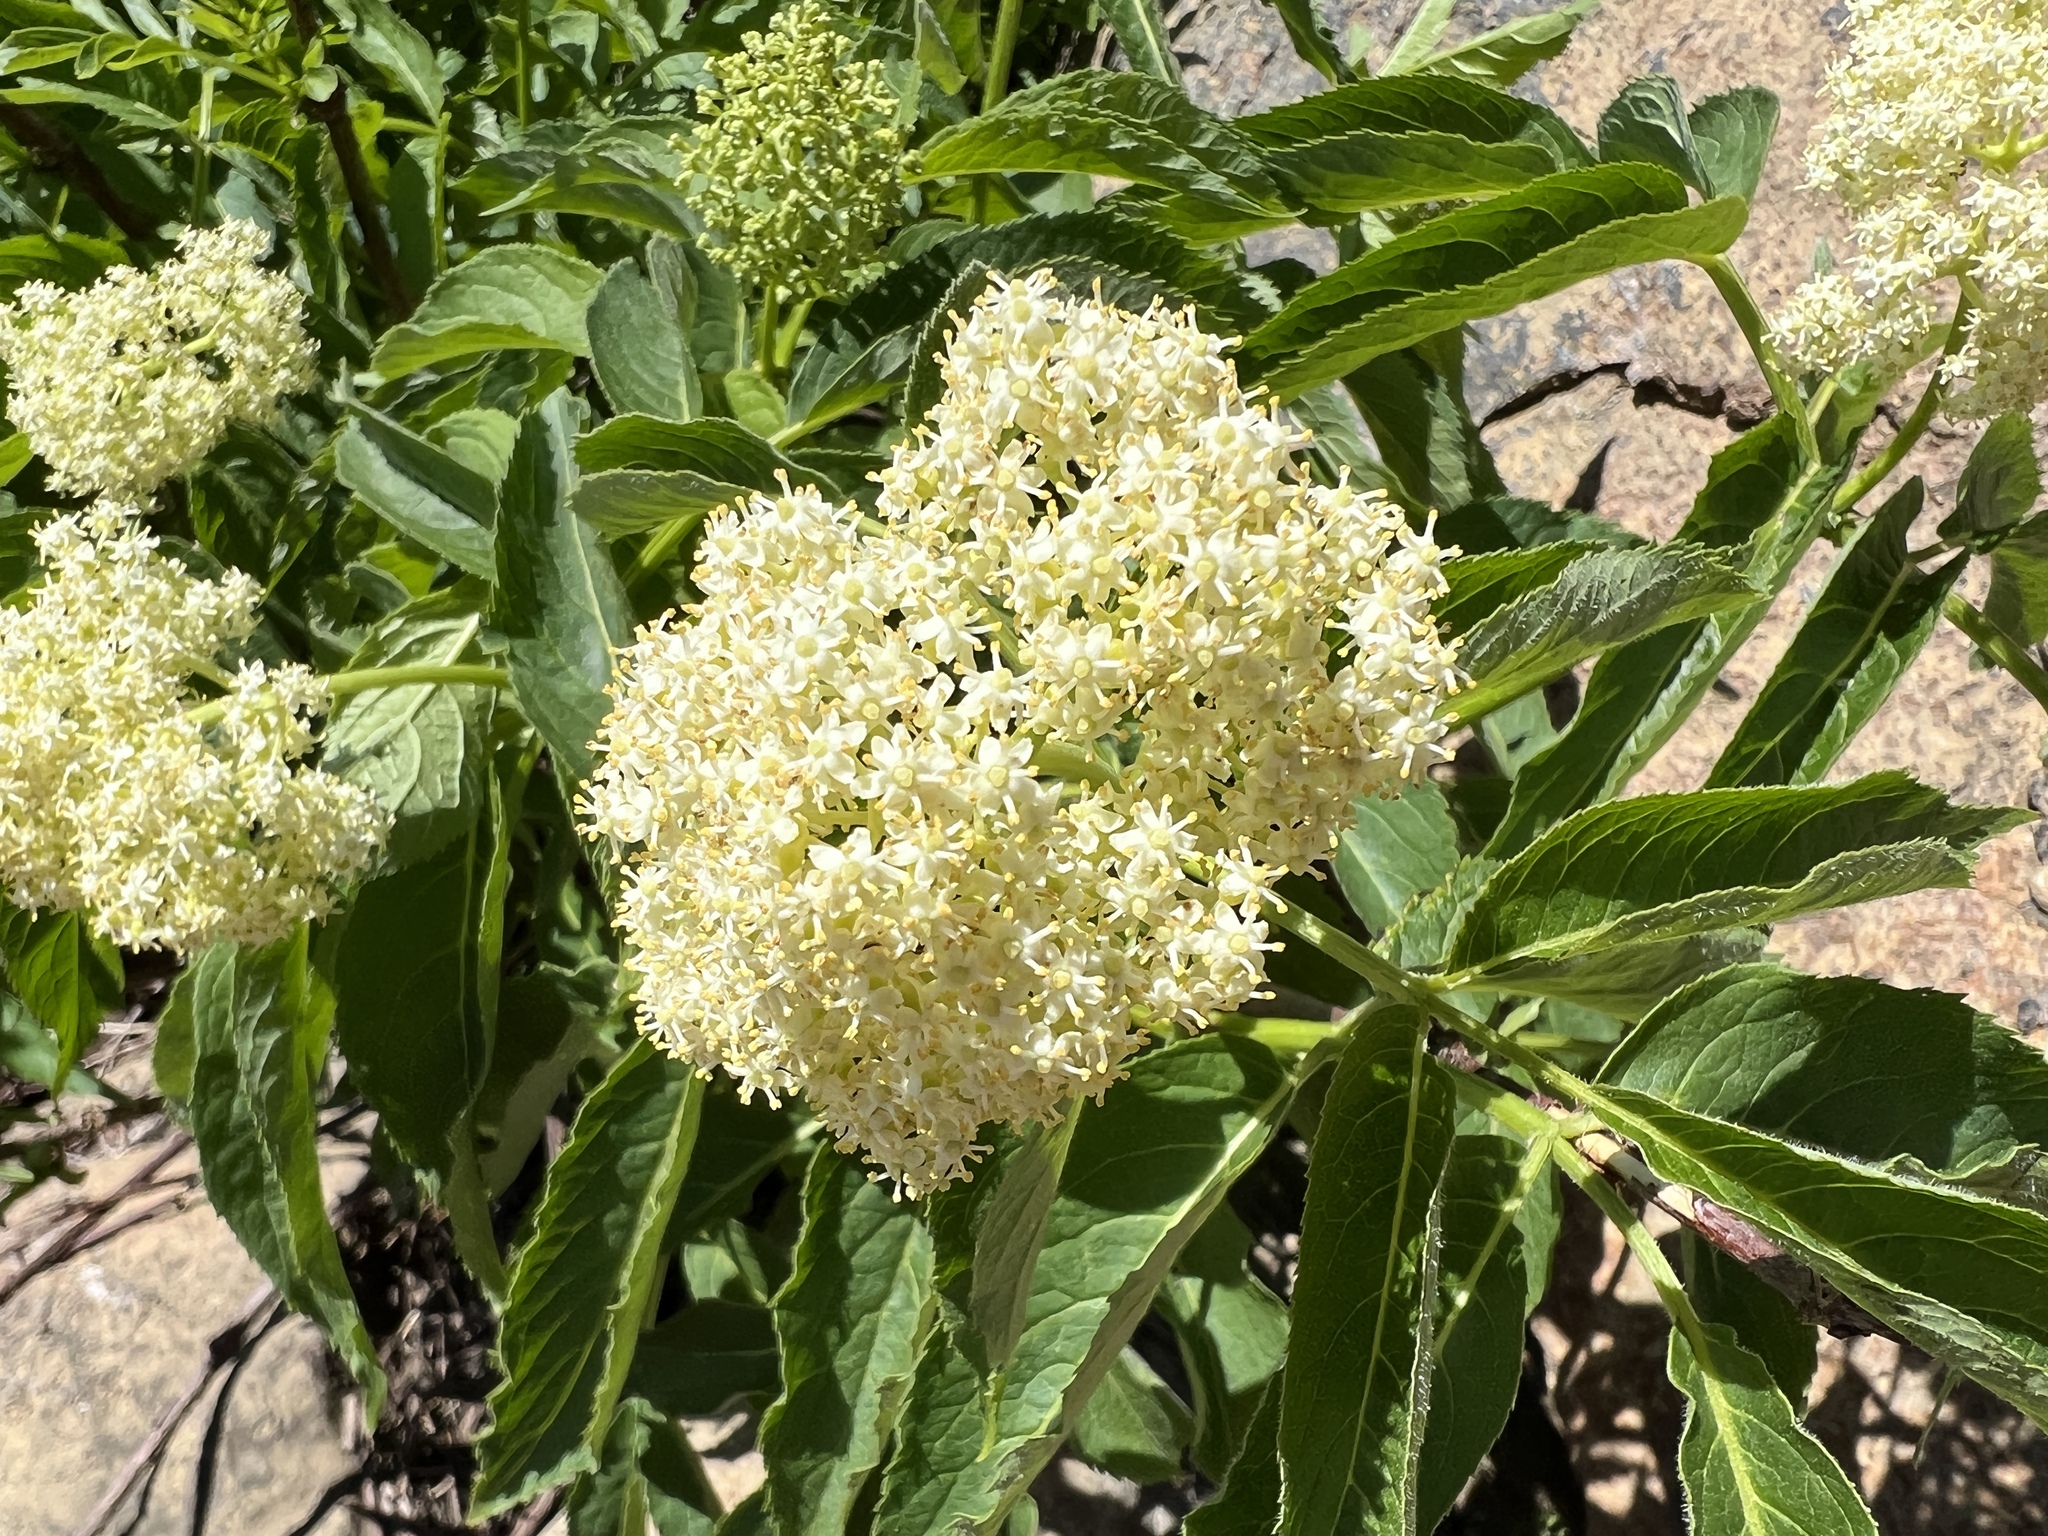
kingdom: Plantae
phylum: Tracheophyta
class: Magnoliopsida
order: Dipsacales
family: Viburnaceae
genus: Sambucus
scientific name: Sambucus racemosa
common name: Red-berried elder
